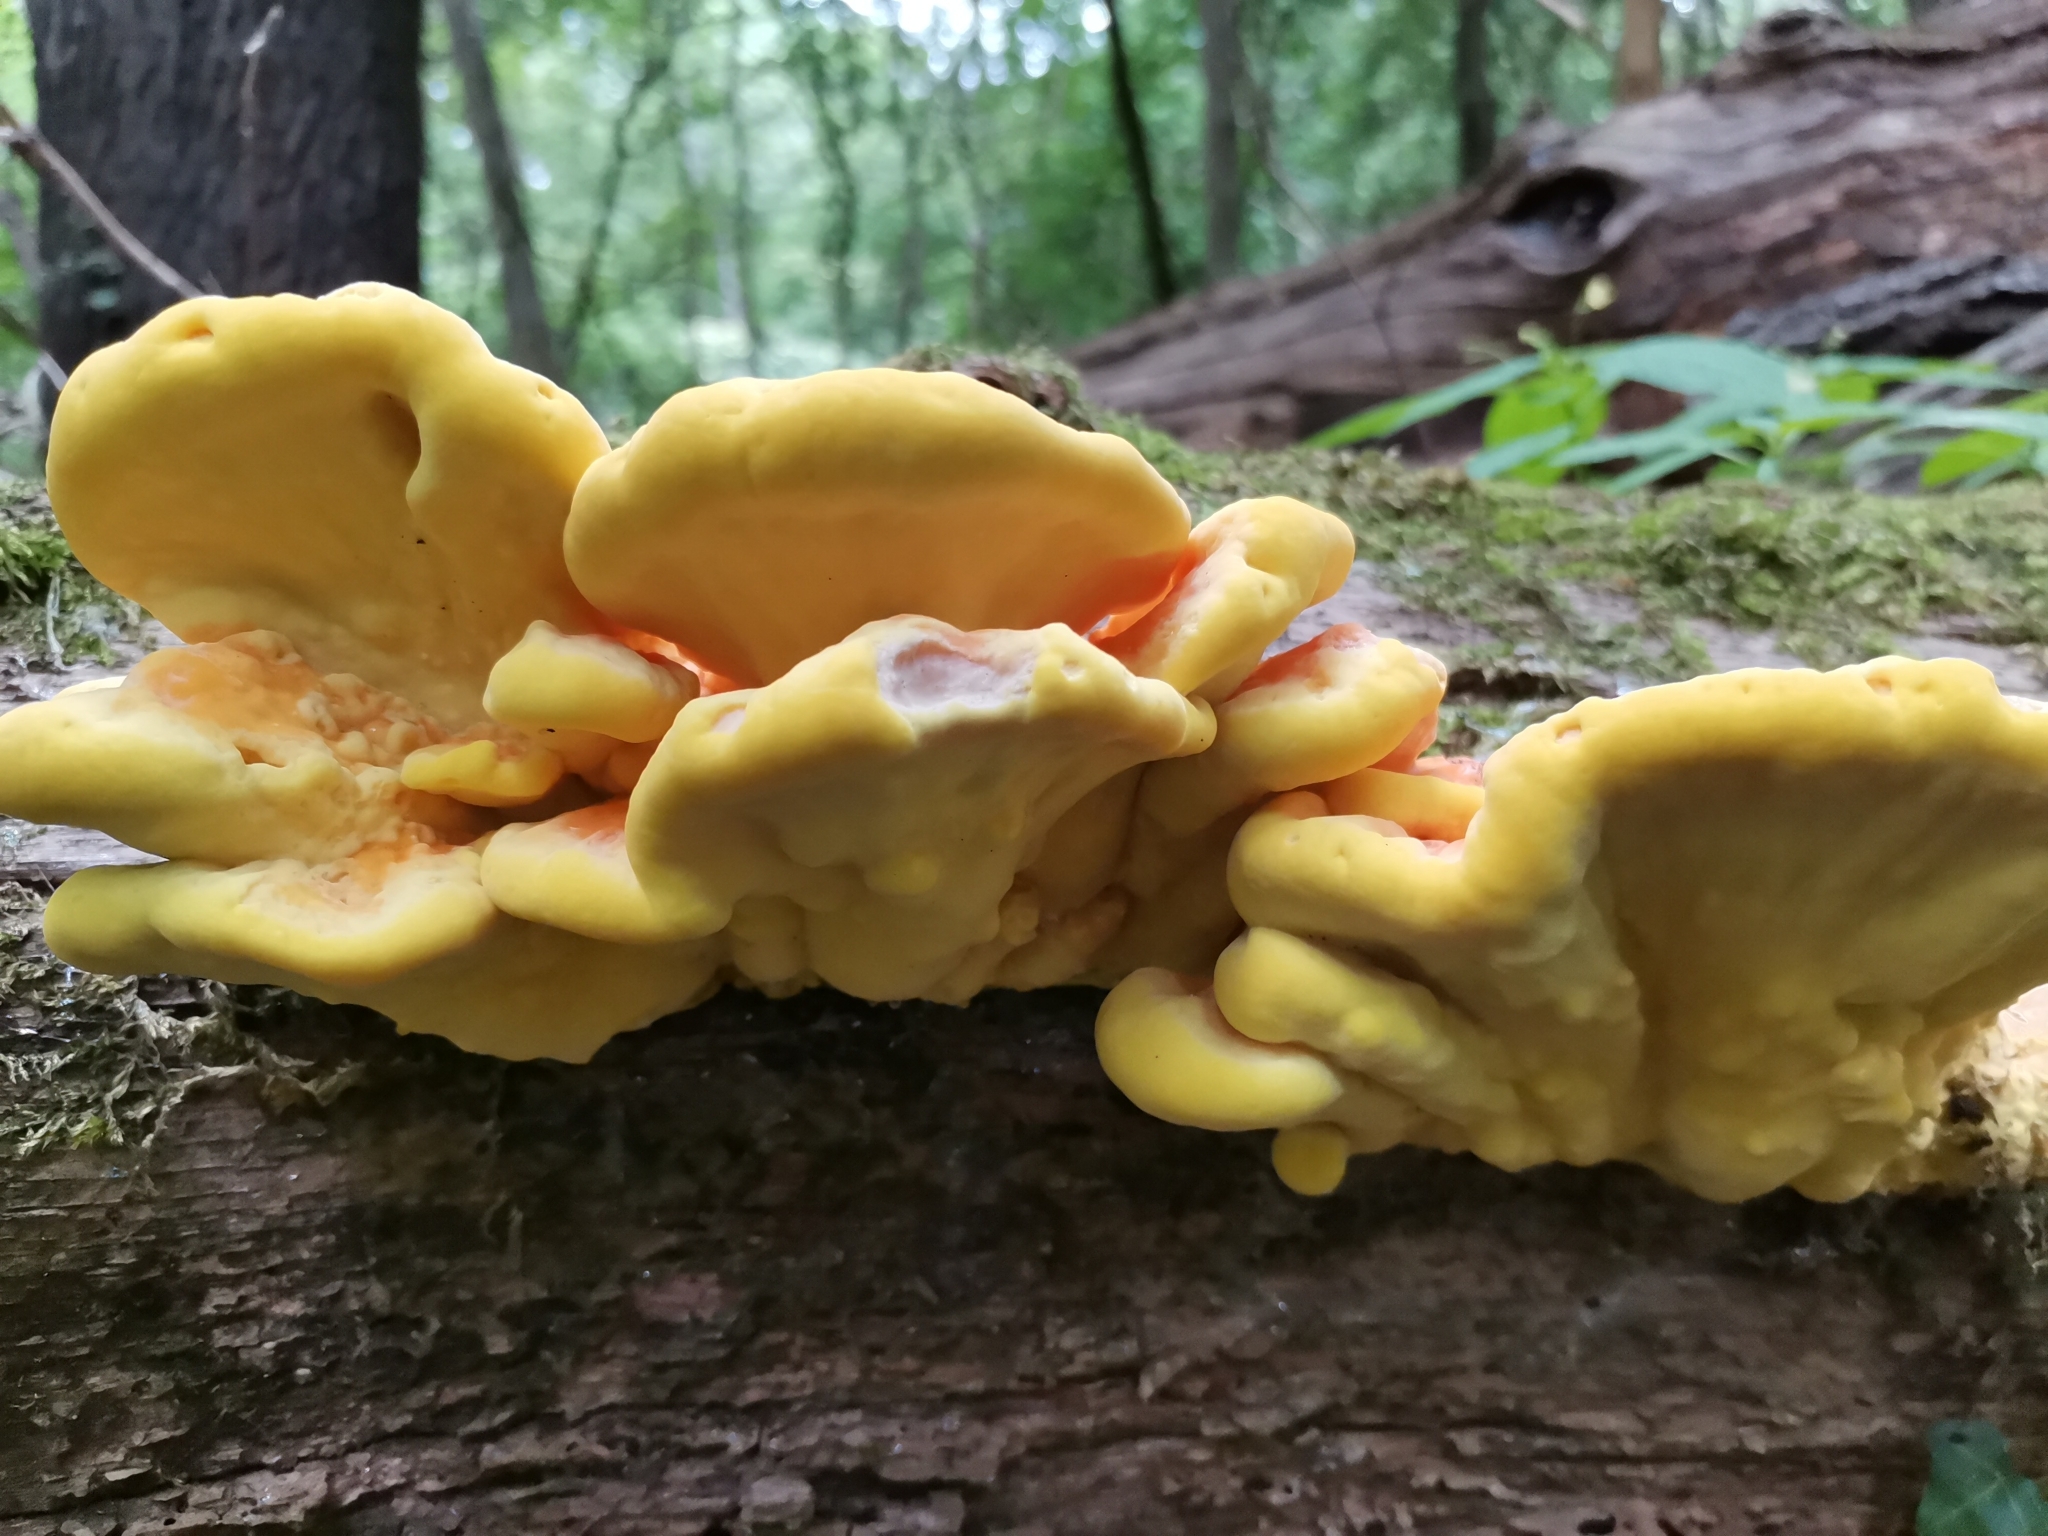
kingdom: Fungi
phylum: Basidiomycota
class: Agaricomycetes
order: Polyporales
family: Laetiporaceae
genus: Laetiporus
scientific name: Laetiporus sulphureus
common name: Chicken of the woods
